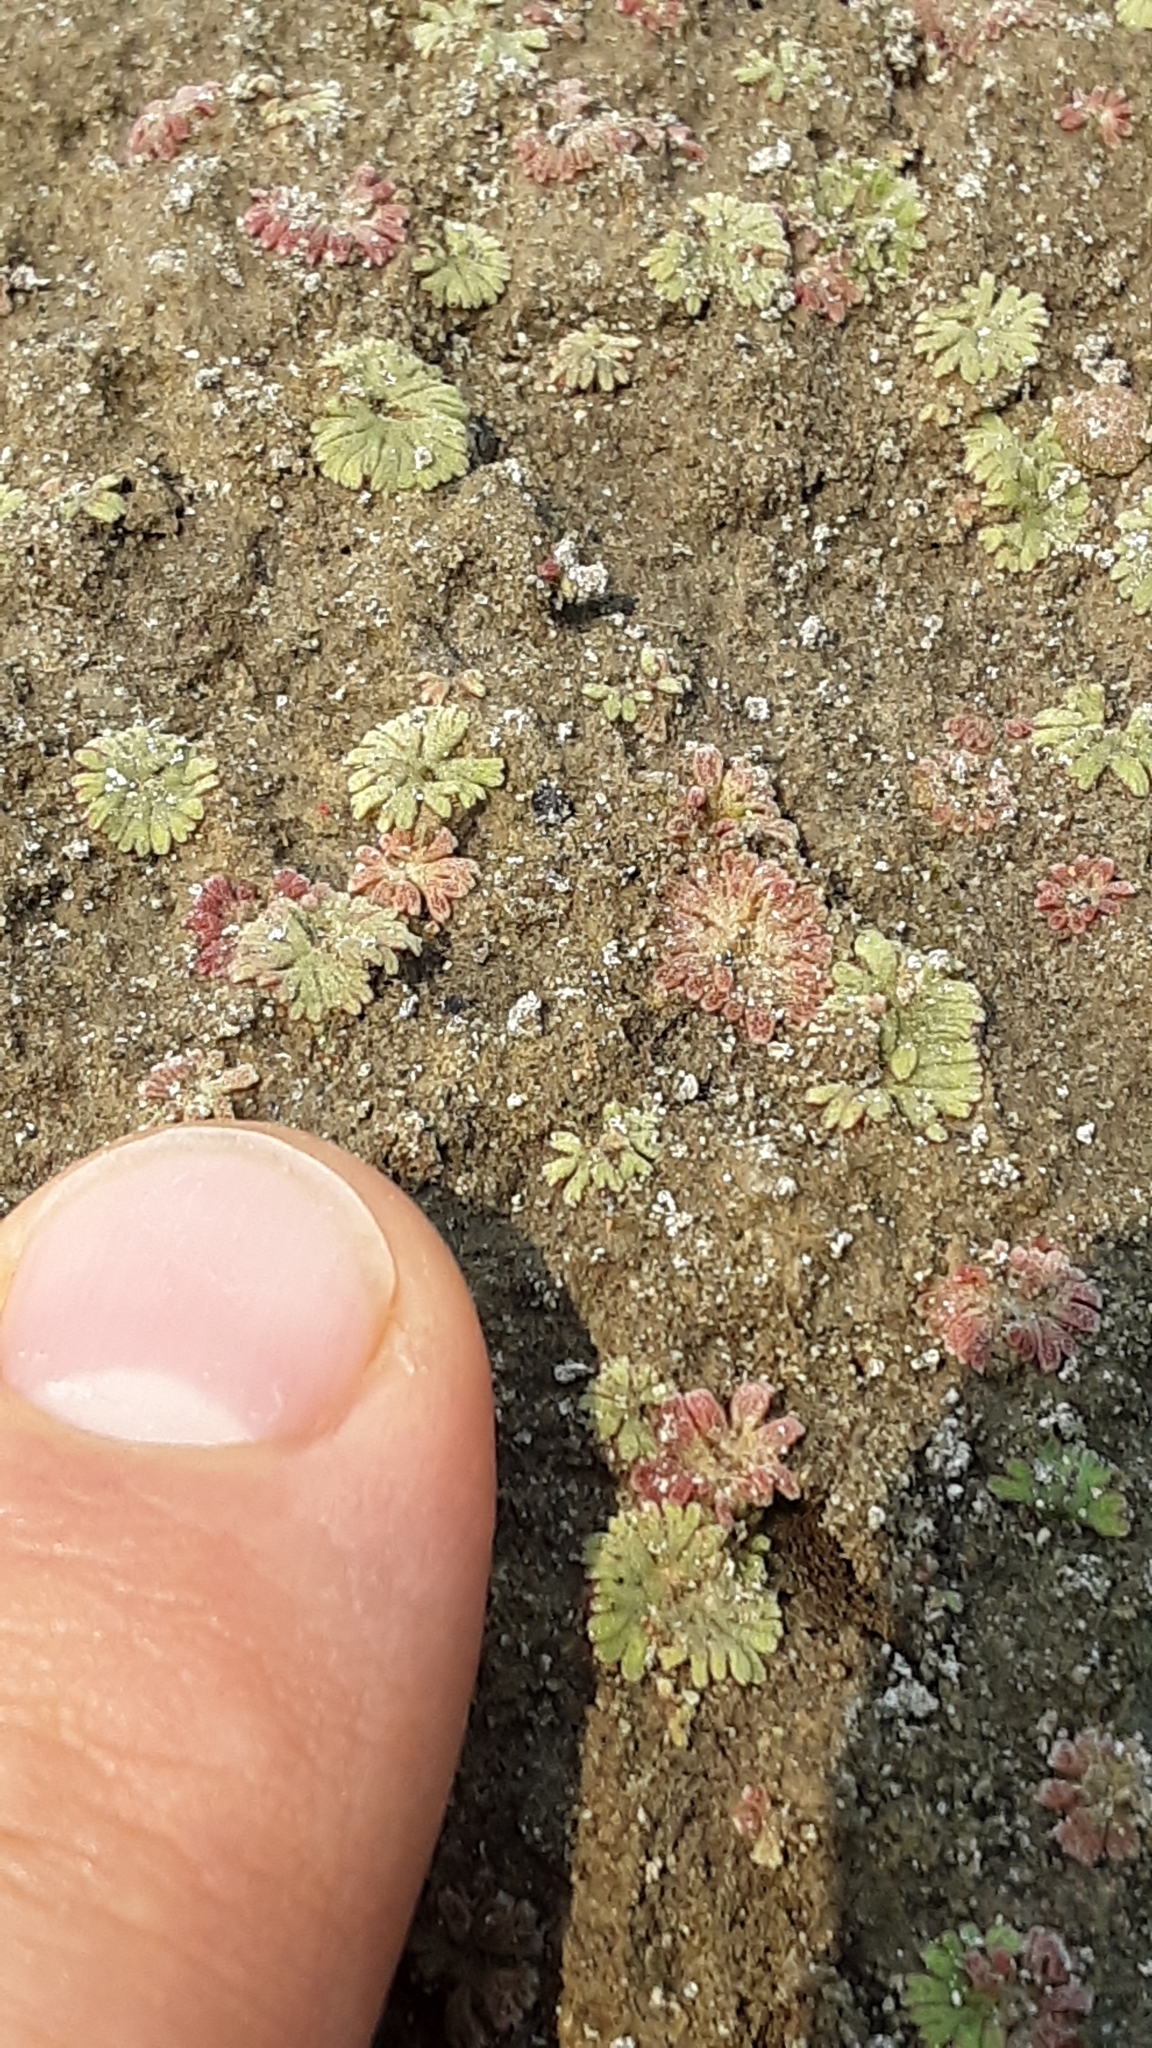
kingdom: Plantae
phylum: Marchantiophyta
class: Marchantiopsida
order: Marchantiales
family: Ricciaceae
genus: Riccia
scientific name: Riccia frostii
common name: Frost s crystalwort
